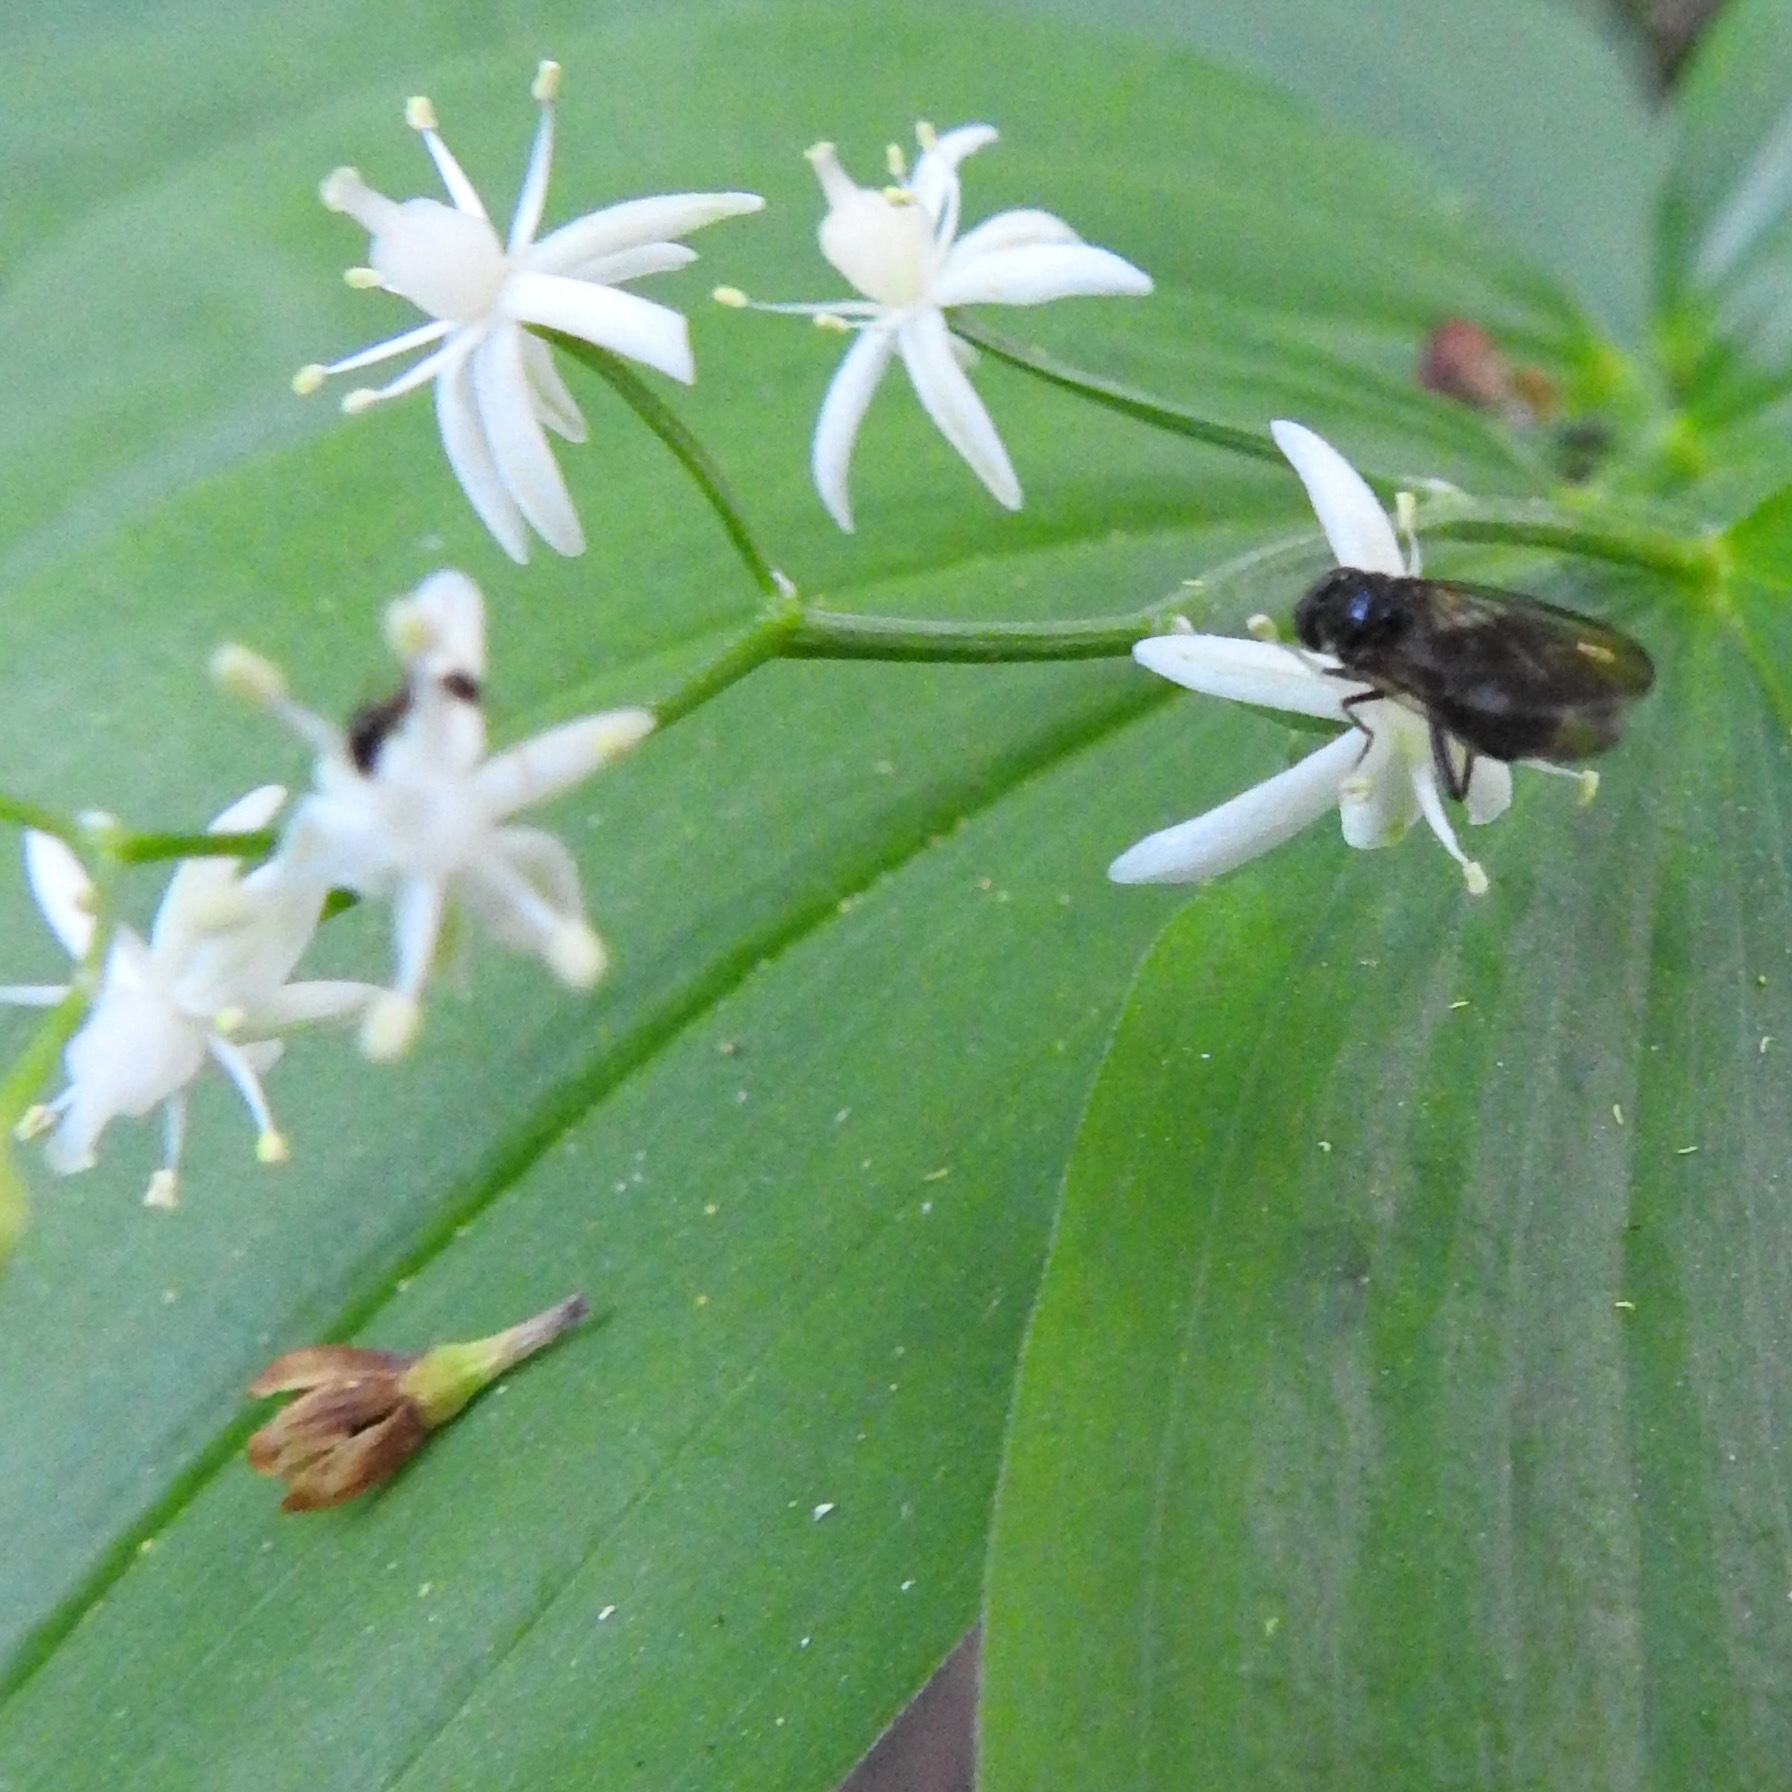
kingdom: Plantae
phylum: Tracheophyta
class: Liliopsida
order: Asparagales
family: Asparagaceae
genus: Maianthemum
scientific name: Maianthemum stellatum
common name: Little false solomon's seal
